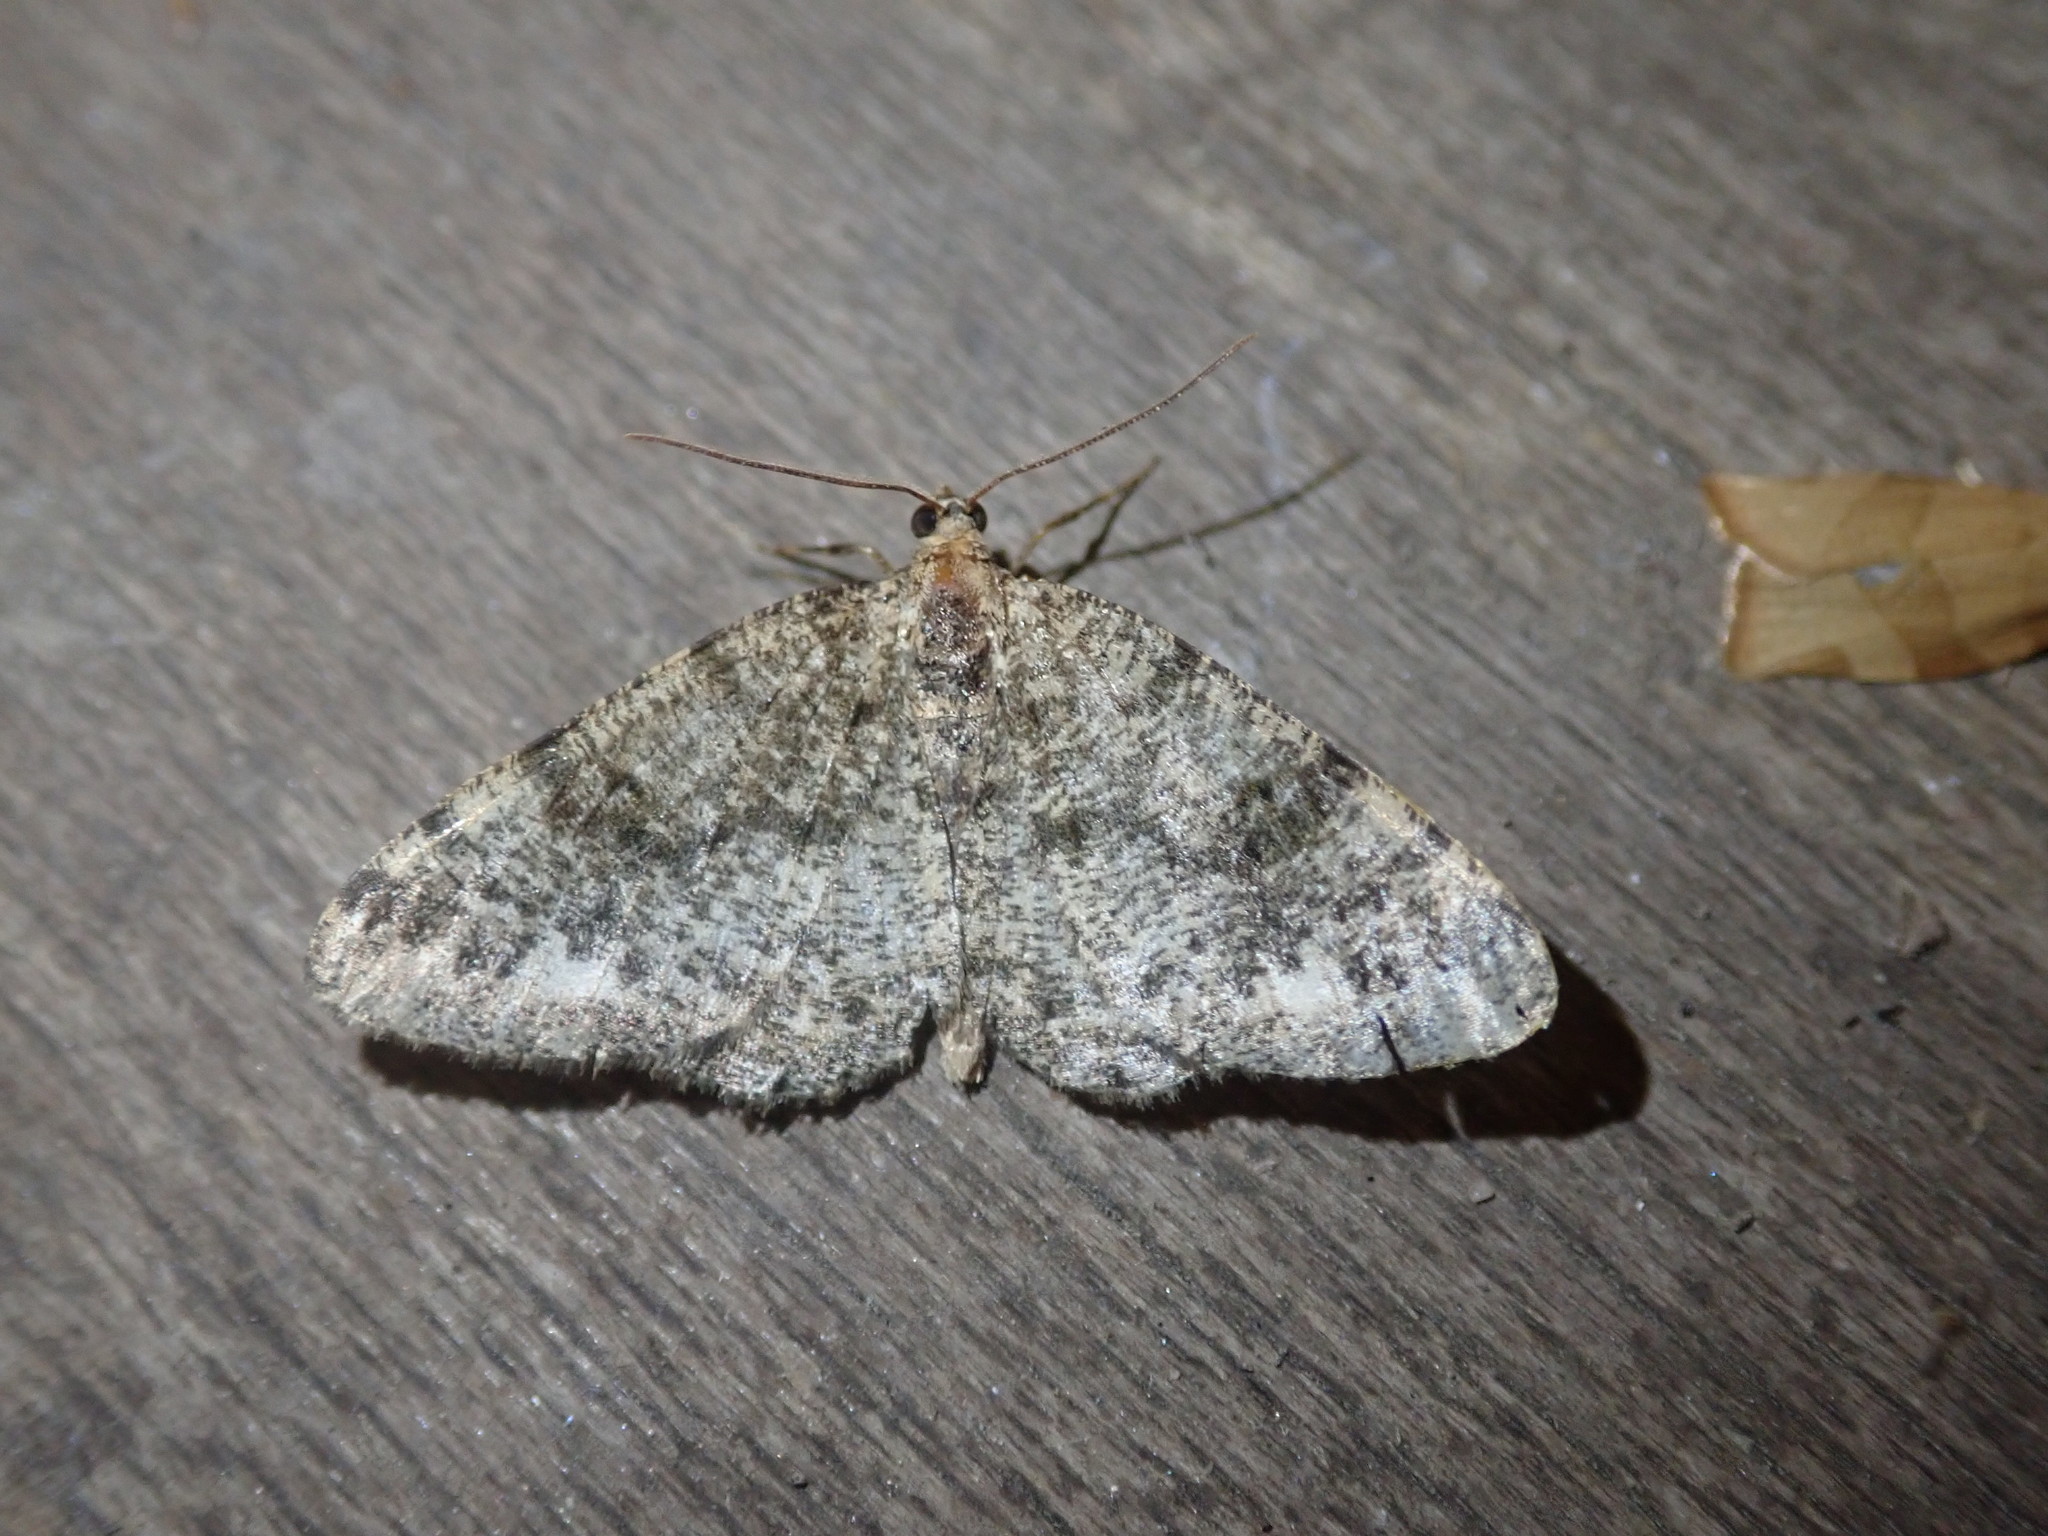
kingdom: Animalia
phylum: Arthropoda
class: Insecta
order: Lepidoptera
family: Geometridae
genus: Parectropis
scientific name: Parectropis similaria
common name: Brindled white-spot
